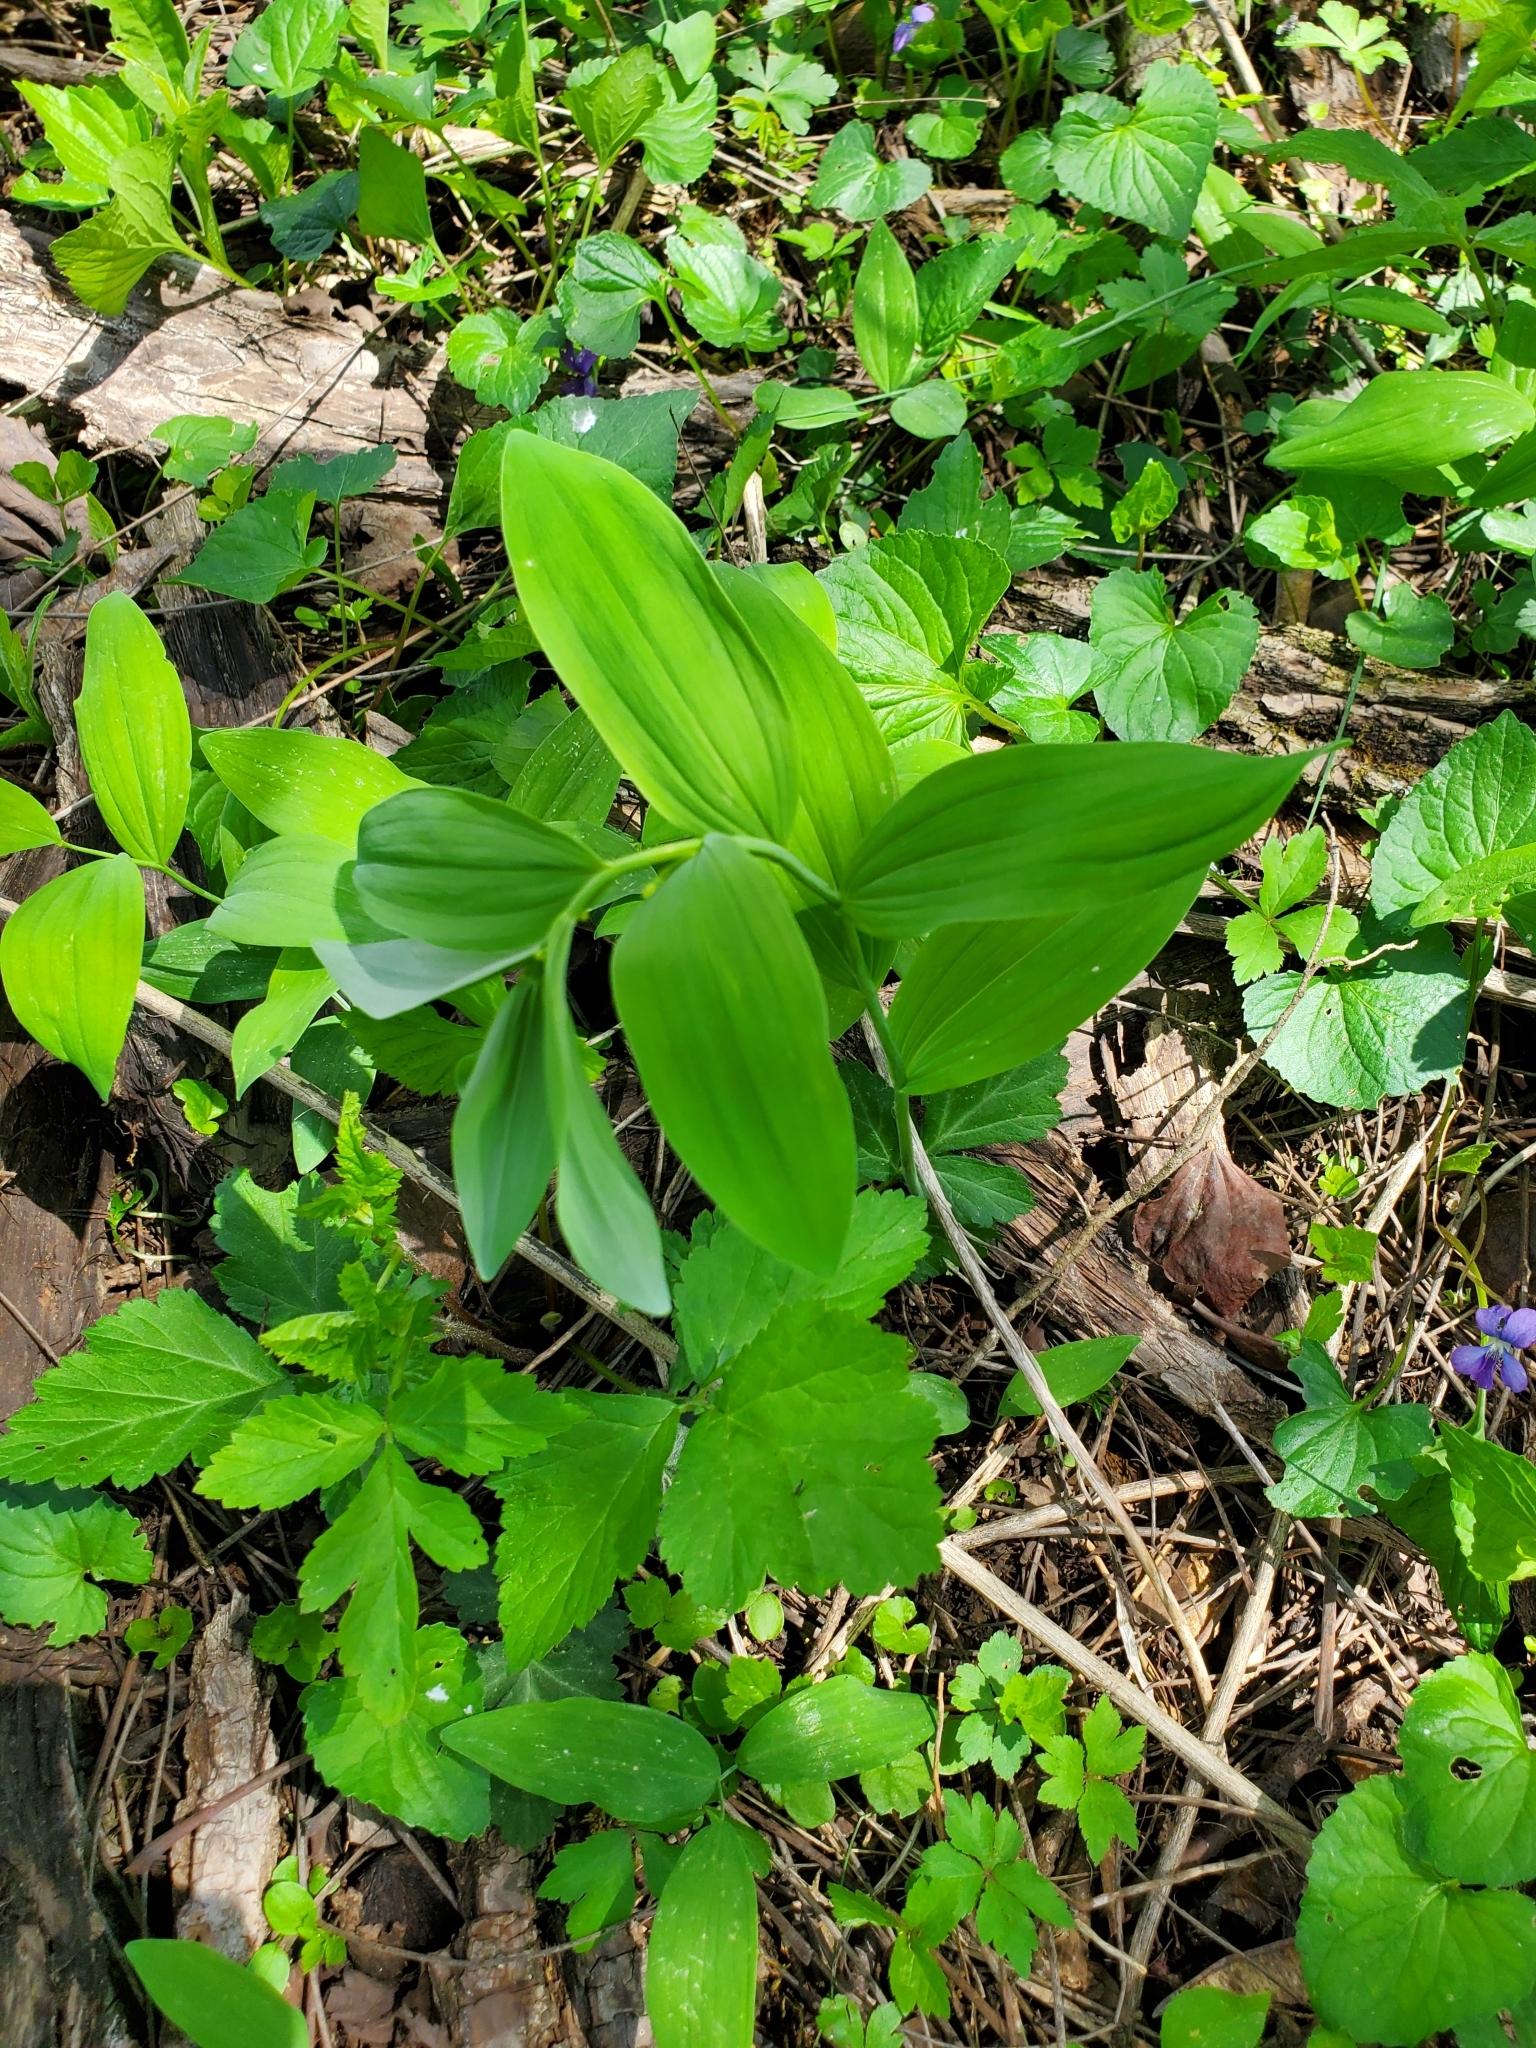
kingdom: Plantae
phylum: Tracheophyta
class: Liliopsida
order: Asparagales
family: Asparagaceae
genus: Polygonatum
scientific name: Polygonatum biflorum
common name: American solomon's-seal
